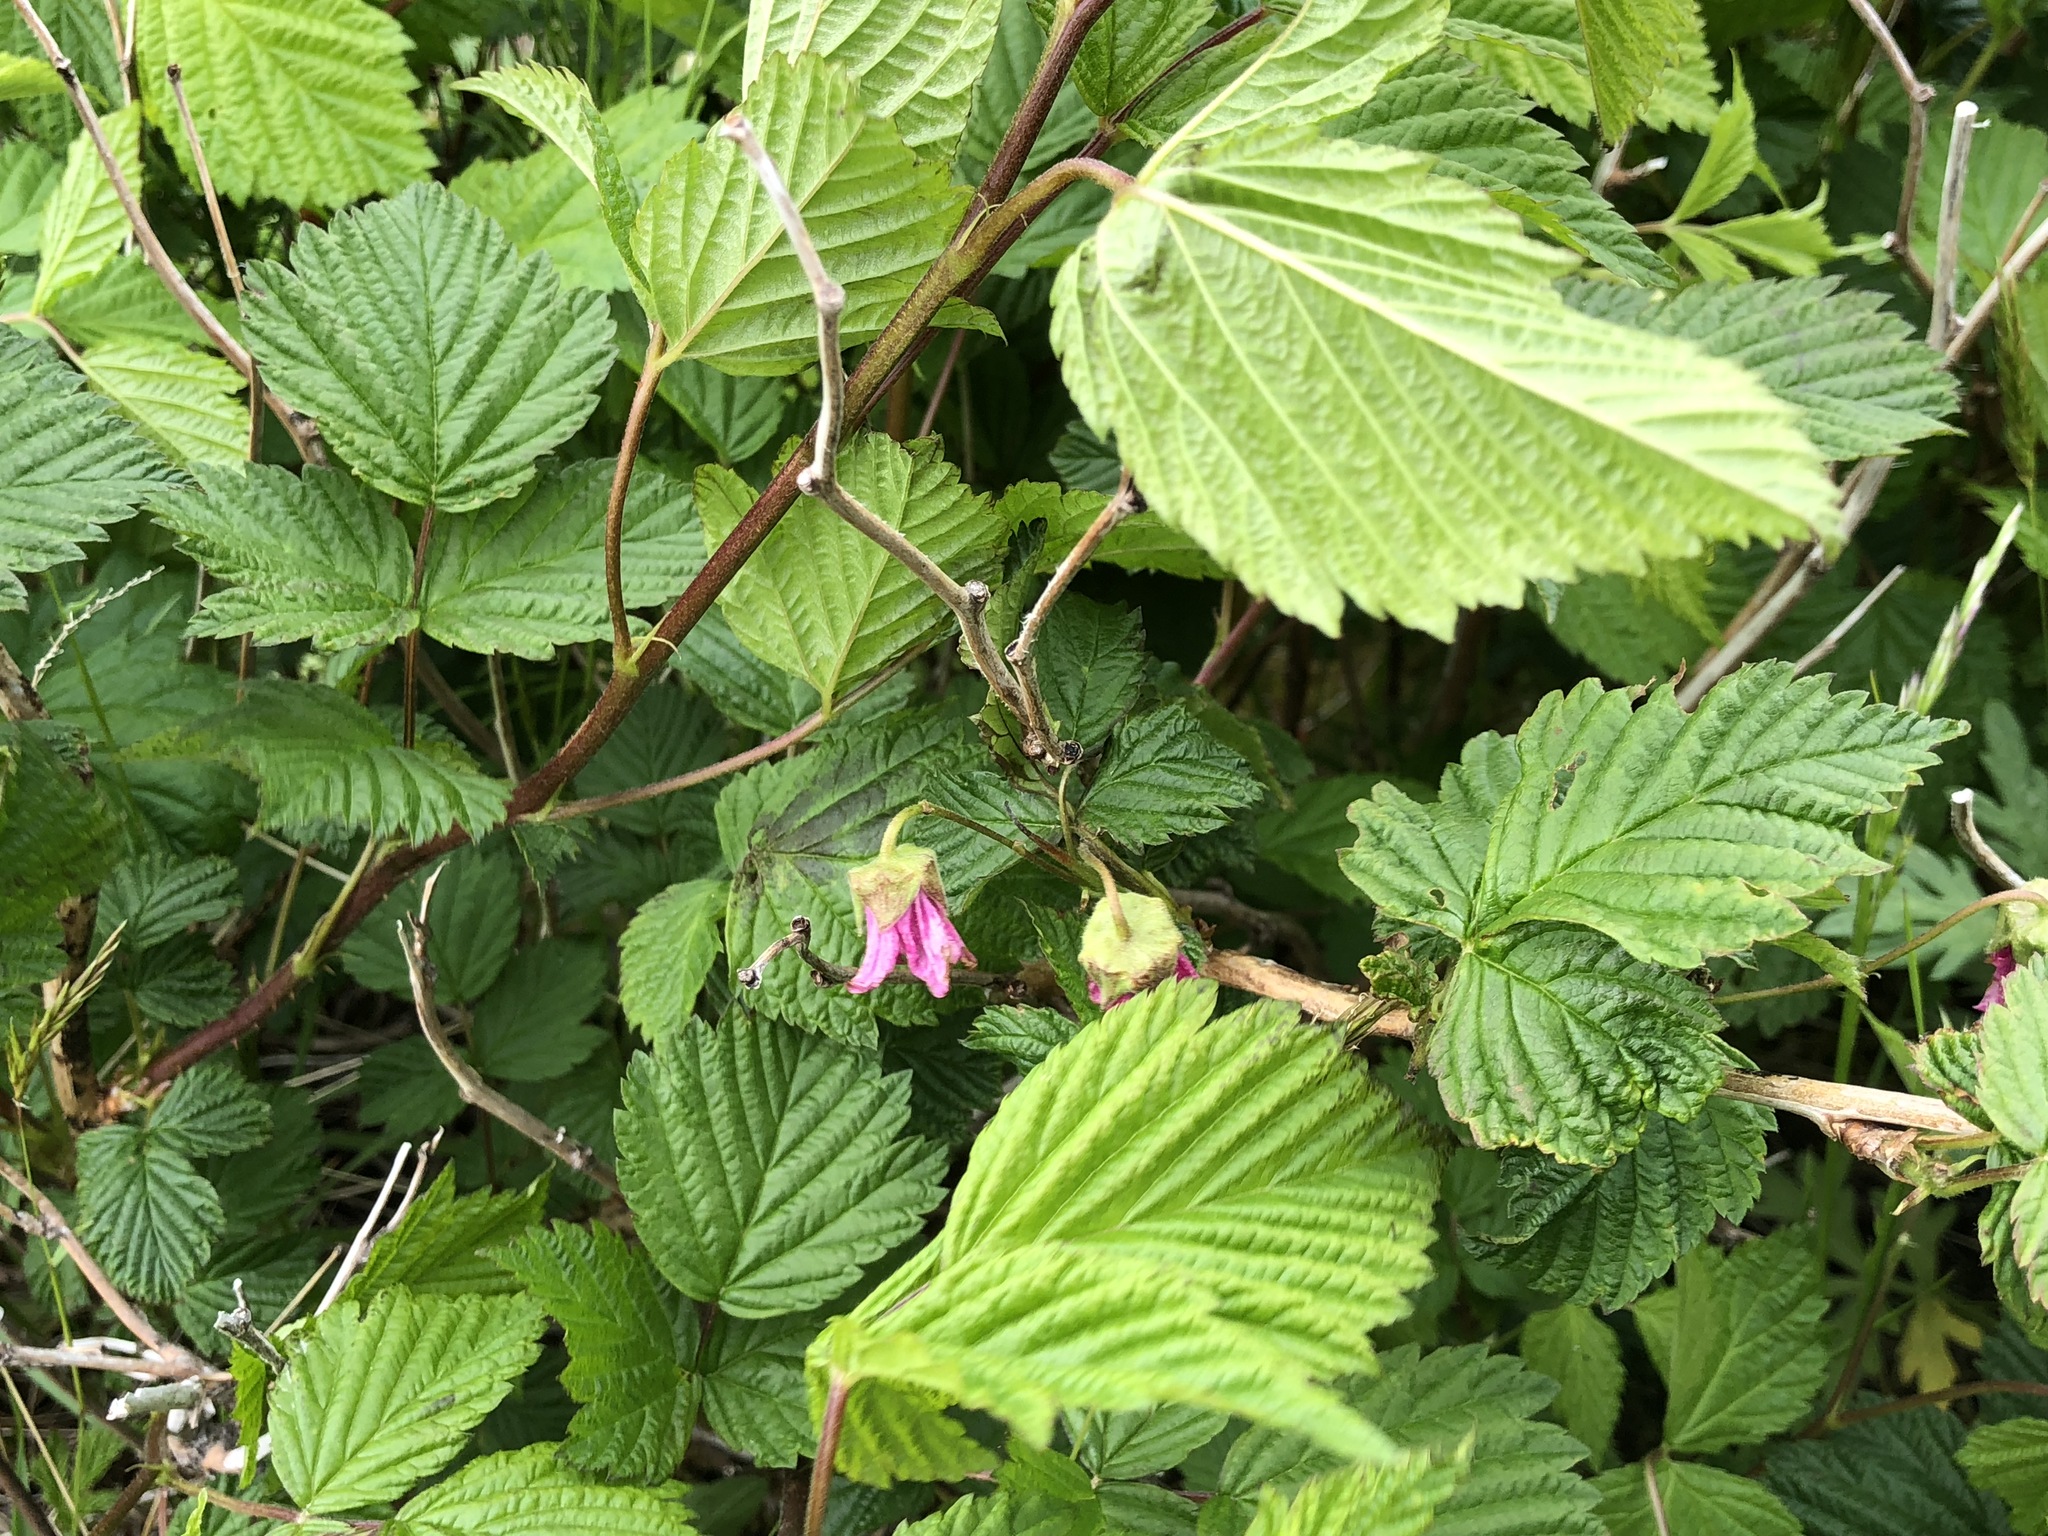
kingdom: Plantae
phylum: Tracheophyta
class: Magnoliopsida
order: Rosales
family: Rosaceae
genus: Rubus
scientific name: Rubus spectabilis
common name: Salmonberry
